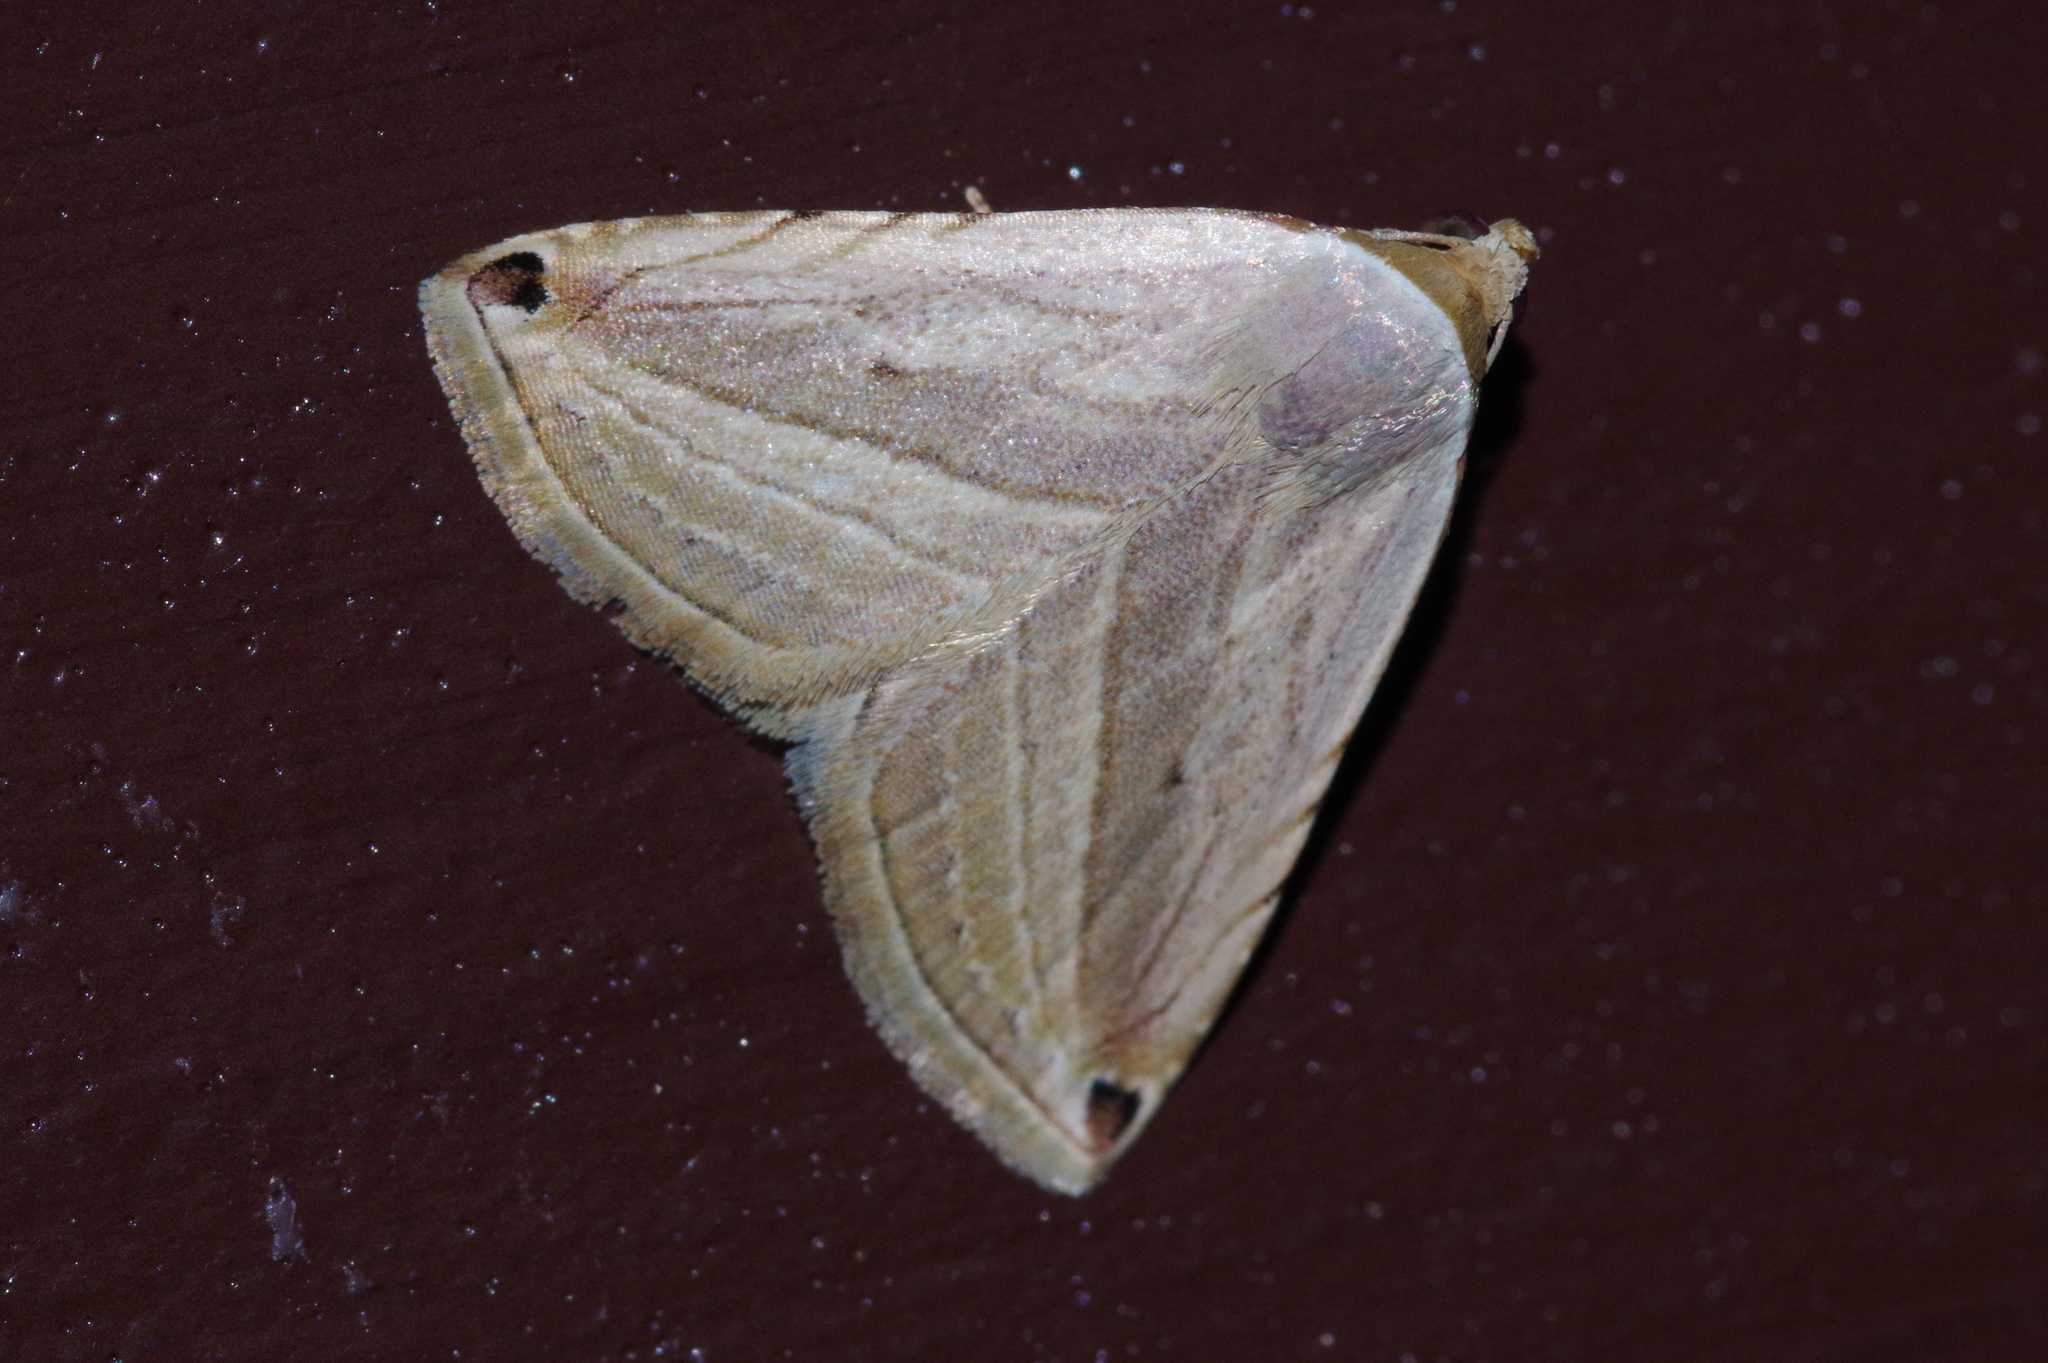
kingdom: Animalia
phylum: Arthropoda
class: Insecta
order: Lepidoptera
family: Noctuidae
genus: Honeyania
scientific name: Honeyania ragusana
